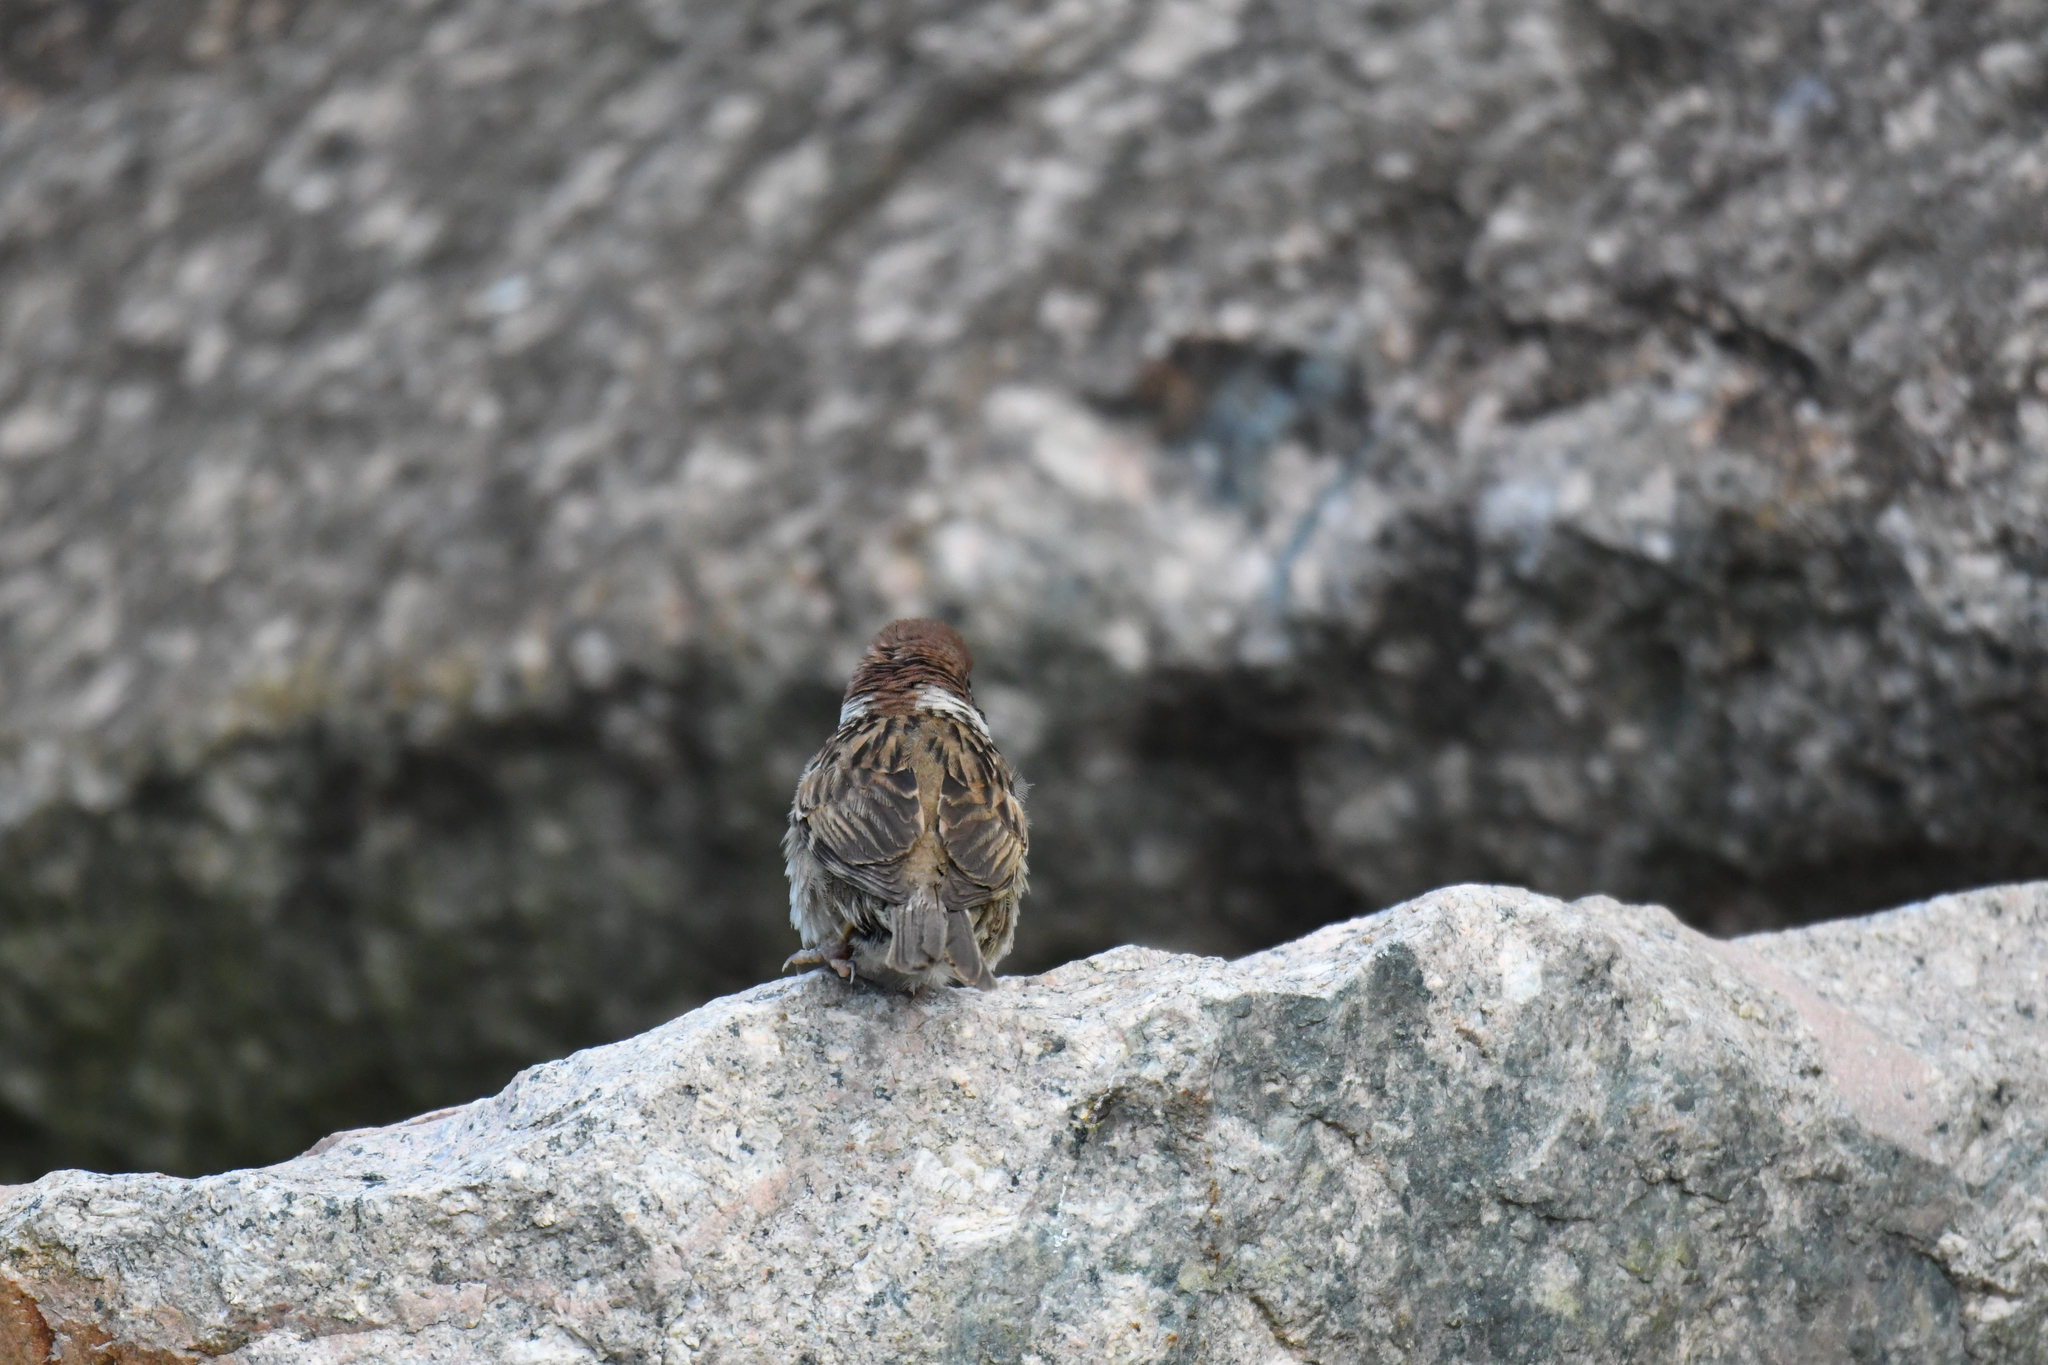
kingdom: Animalia
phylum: Chordata
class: Aves
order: Passeriformes
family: Passeridae
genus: Passer
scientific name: Passer montanus
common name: Eurasian tree sparrow
